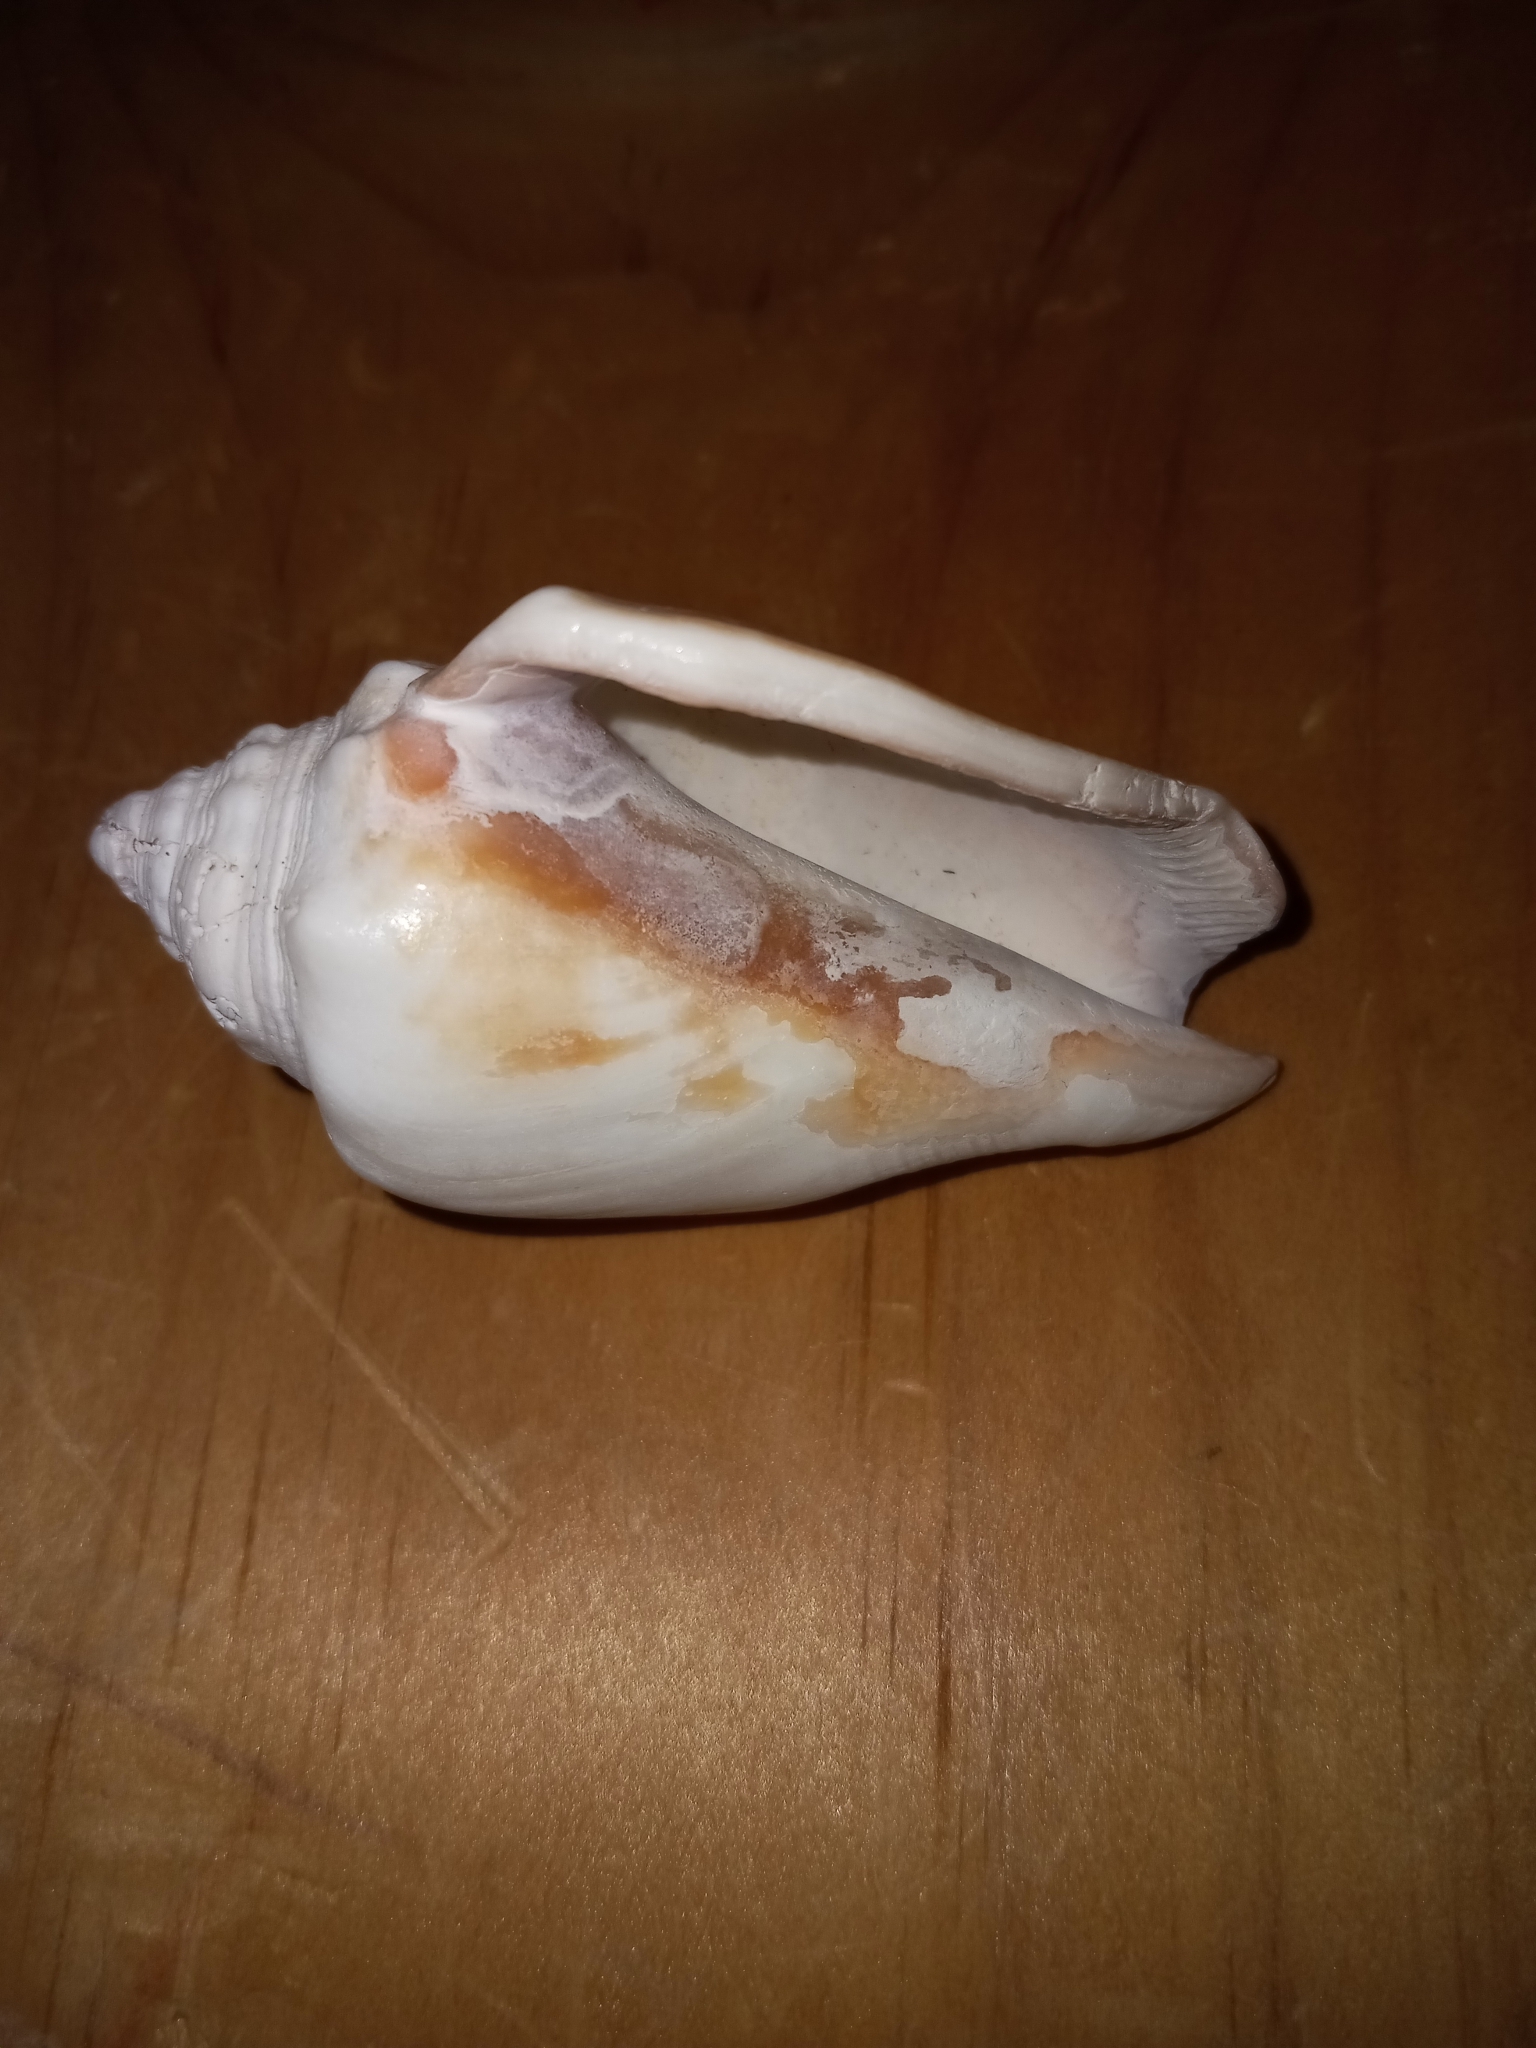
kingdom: Animalia
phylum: Mollusca
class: Gastropoda
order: Littorinimorpha
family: Strombidae
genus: Strombus
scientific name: Strombus alatus
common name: Florida fighting conch
